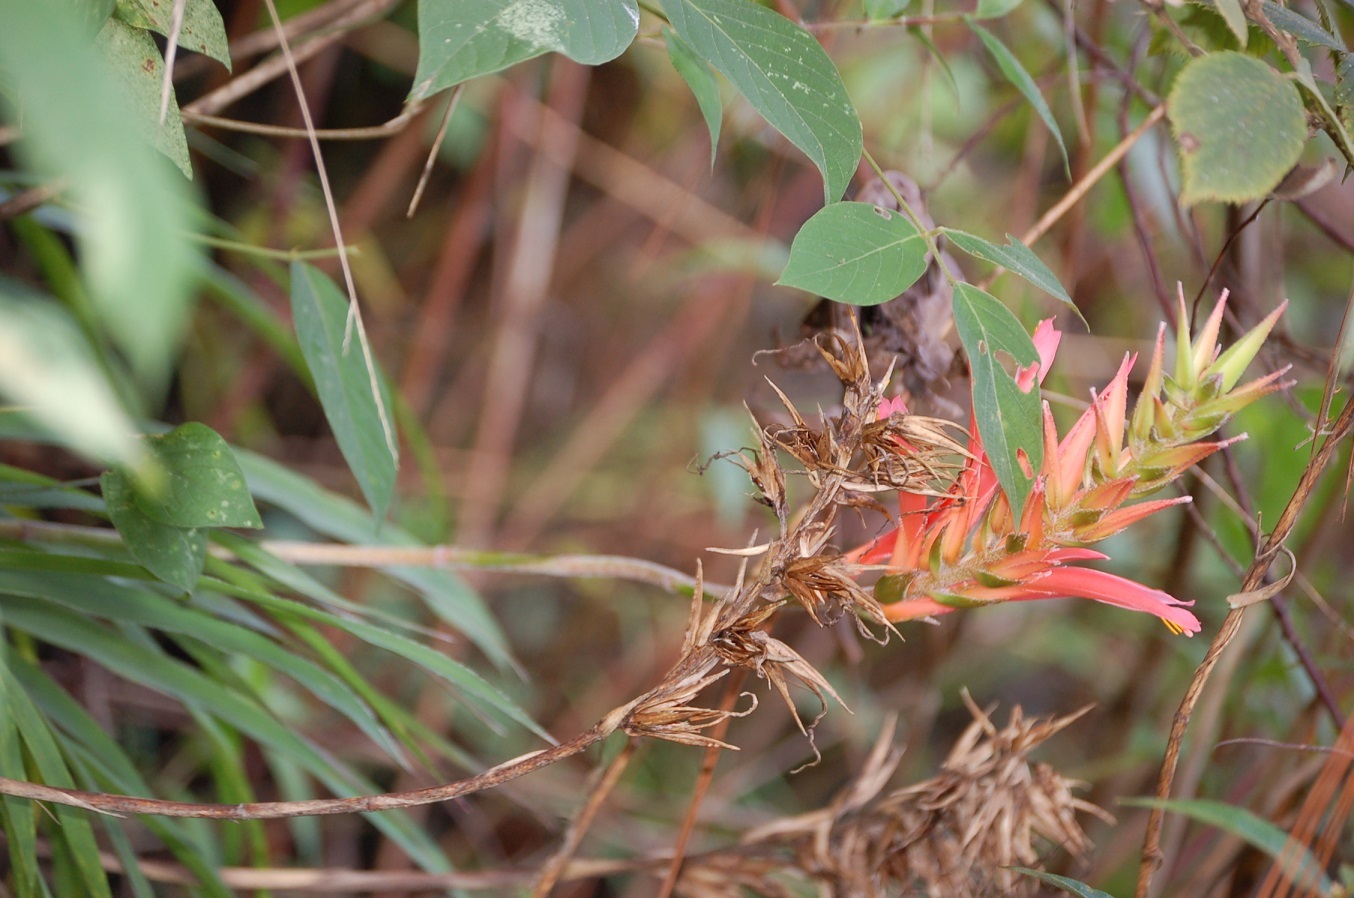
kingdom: Plantae
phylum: Tracheophyta
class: Liliopsida
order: Poales
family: Bromeliaceae
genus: Pitcairnia
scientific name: Pitcairnia calderonii
